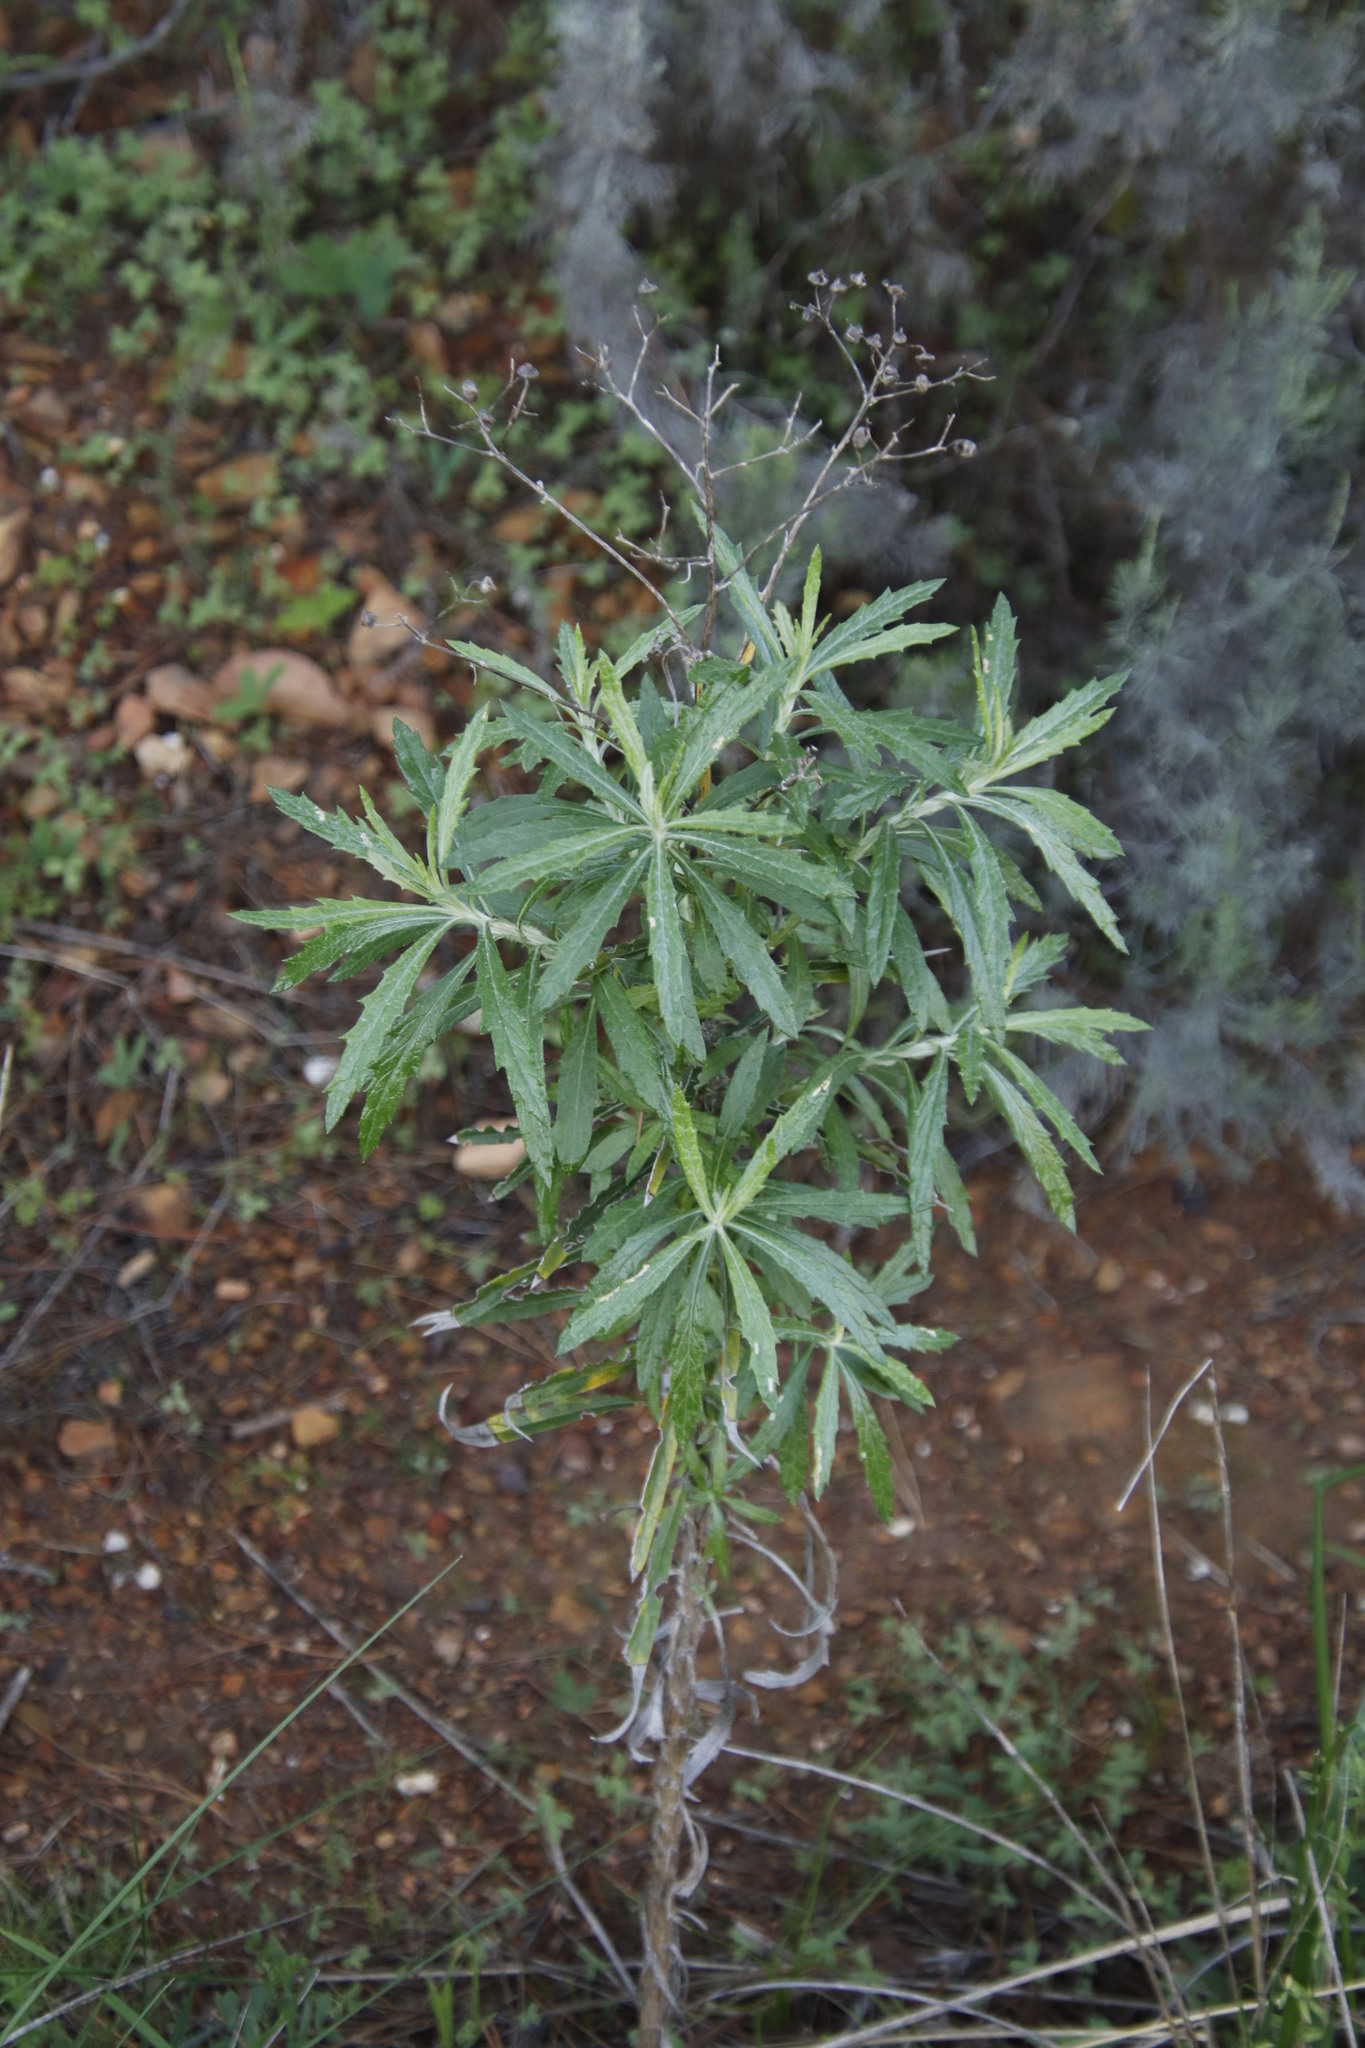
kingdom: Plantae
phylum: Tracheophyta
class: Magnoliopsida
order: Asterales
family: Asteraceae
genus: Senecio
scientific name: Senecio pterophorus
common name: Shoddy ragwort
